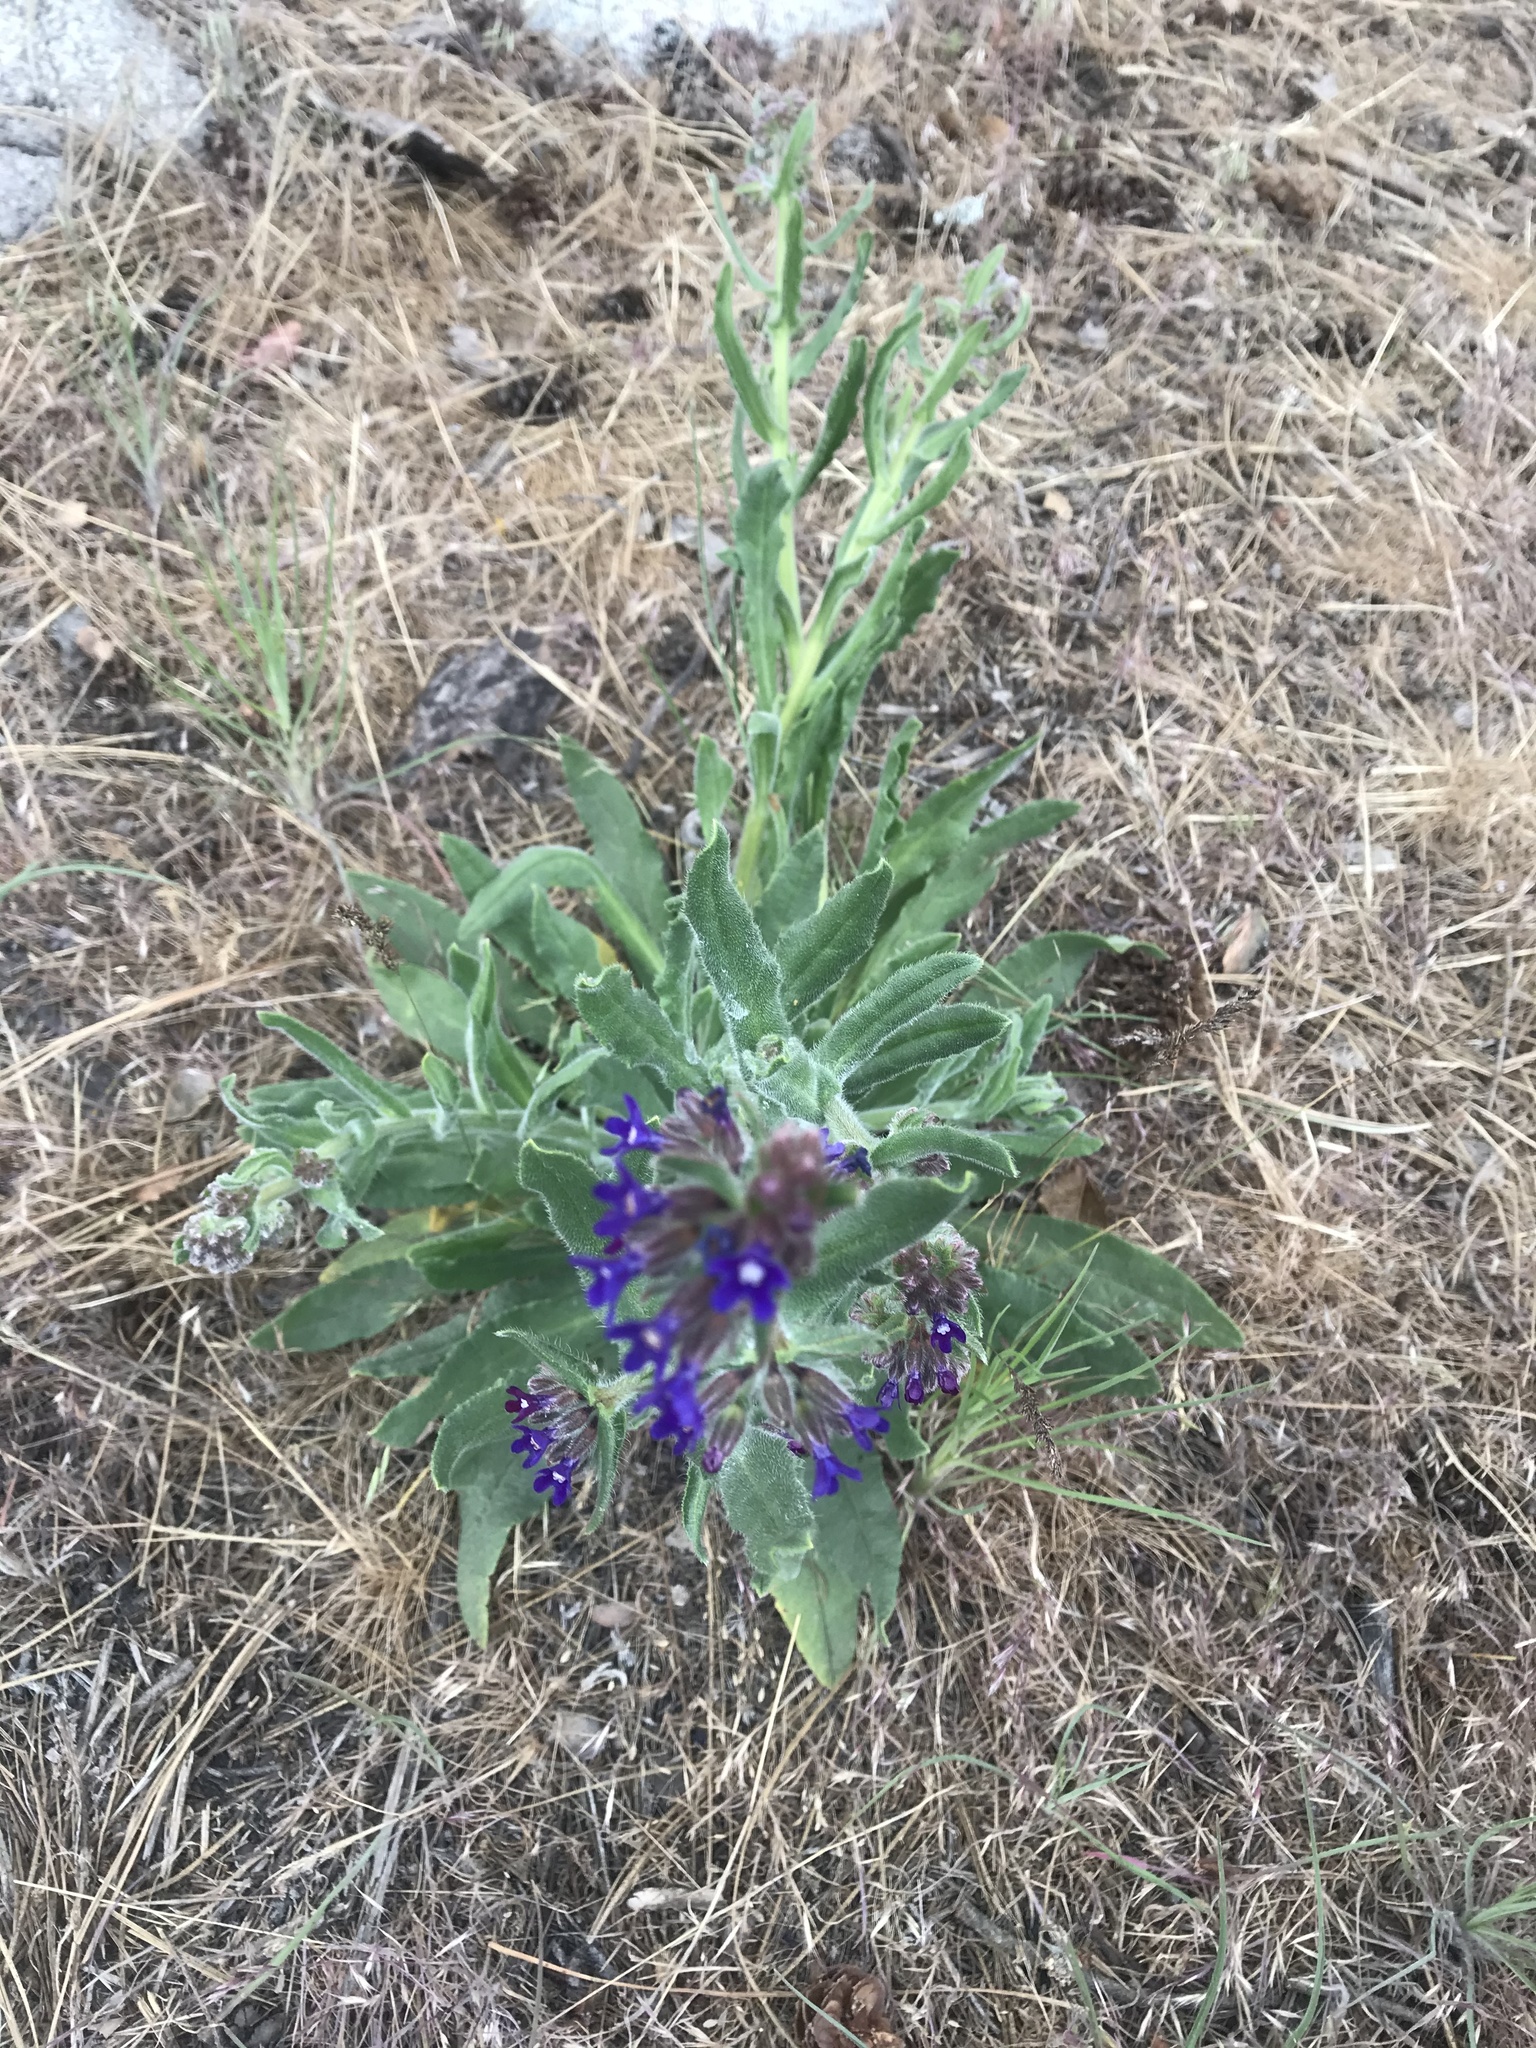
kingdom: Plantae
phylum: Tracheophyta
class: Magnoliopsida
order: Boraginales
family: Boraginaceae
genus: Anchusa
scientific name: Anchusa officinalis
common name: Alkanet
